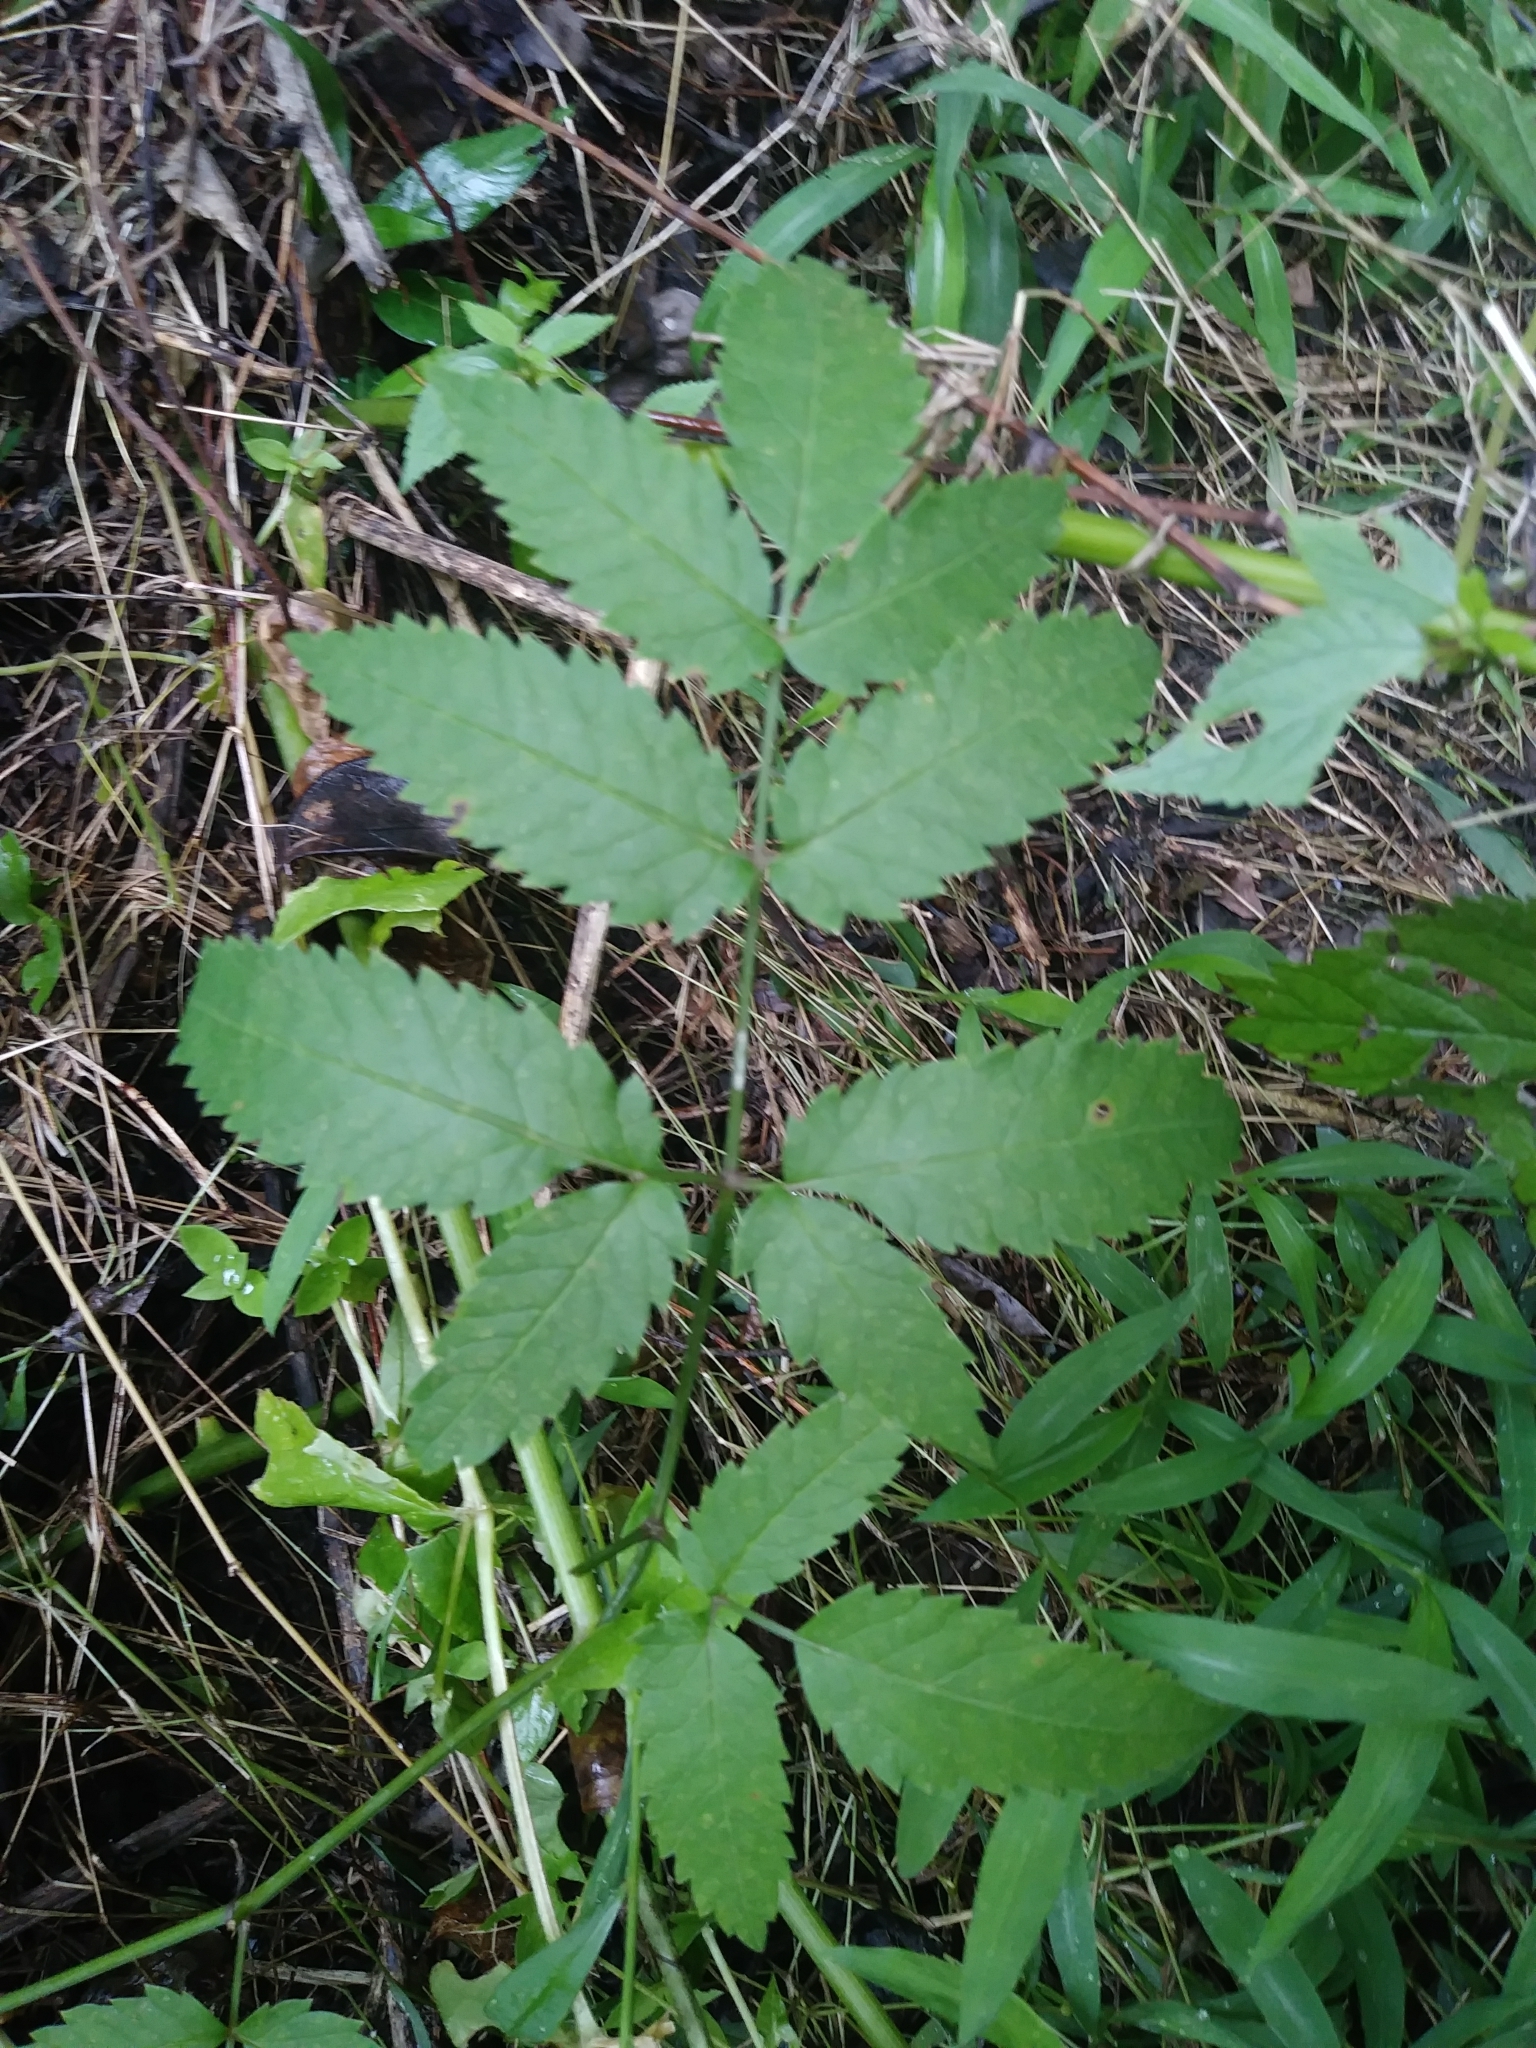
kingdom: Plantae
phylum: Tracheophyta
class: Magnoliopsida
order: Apiales
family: Apiaceae
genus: Cicuta
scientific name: Cicuta maculata
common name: Spotted cowbane
